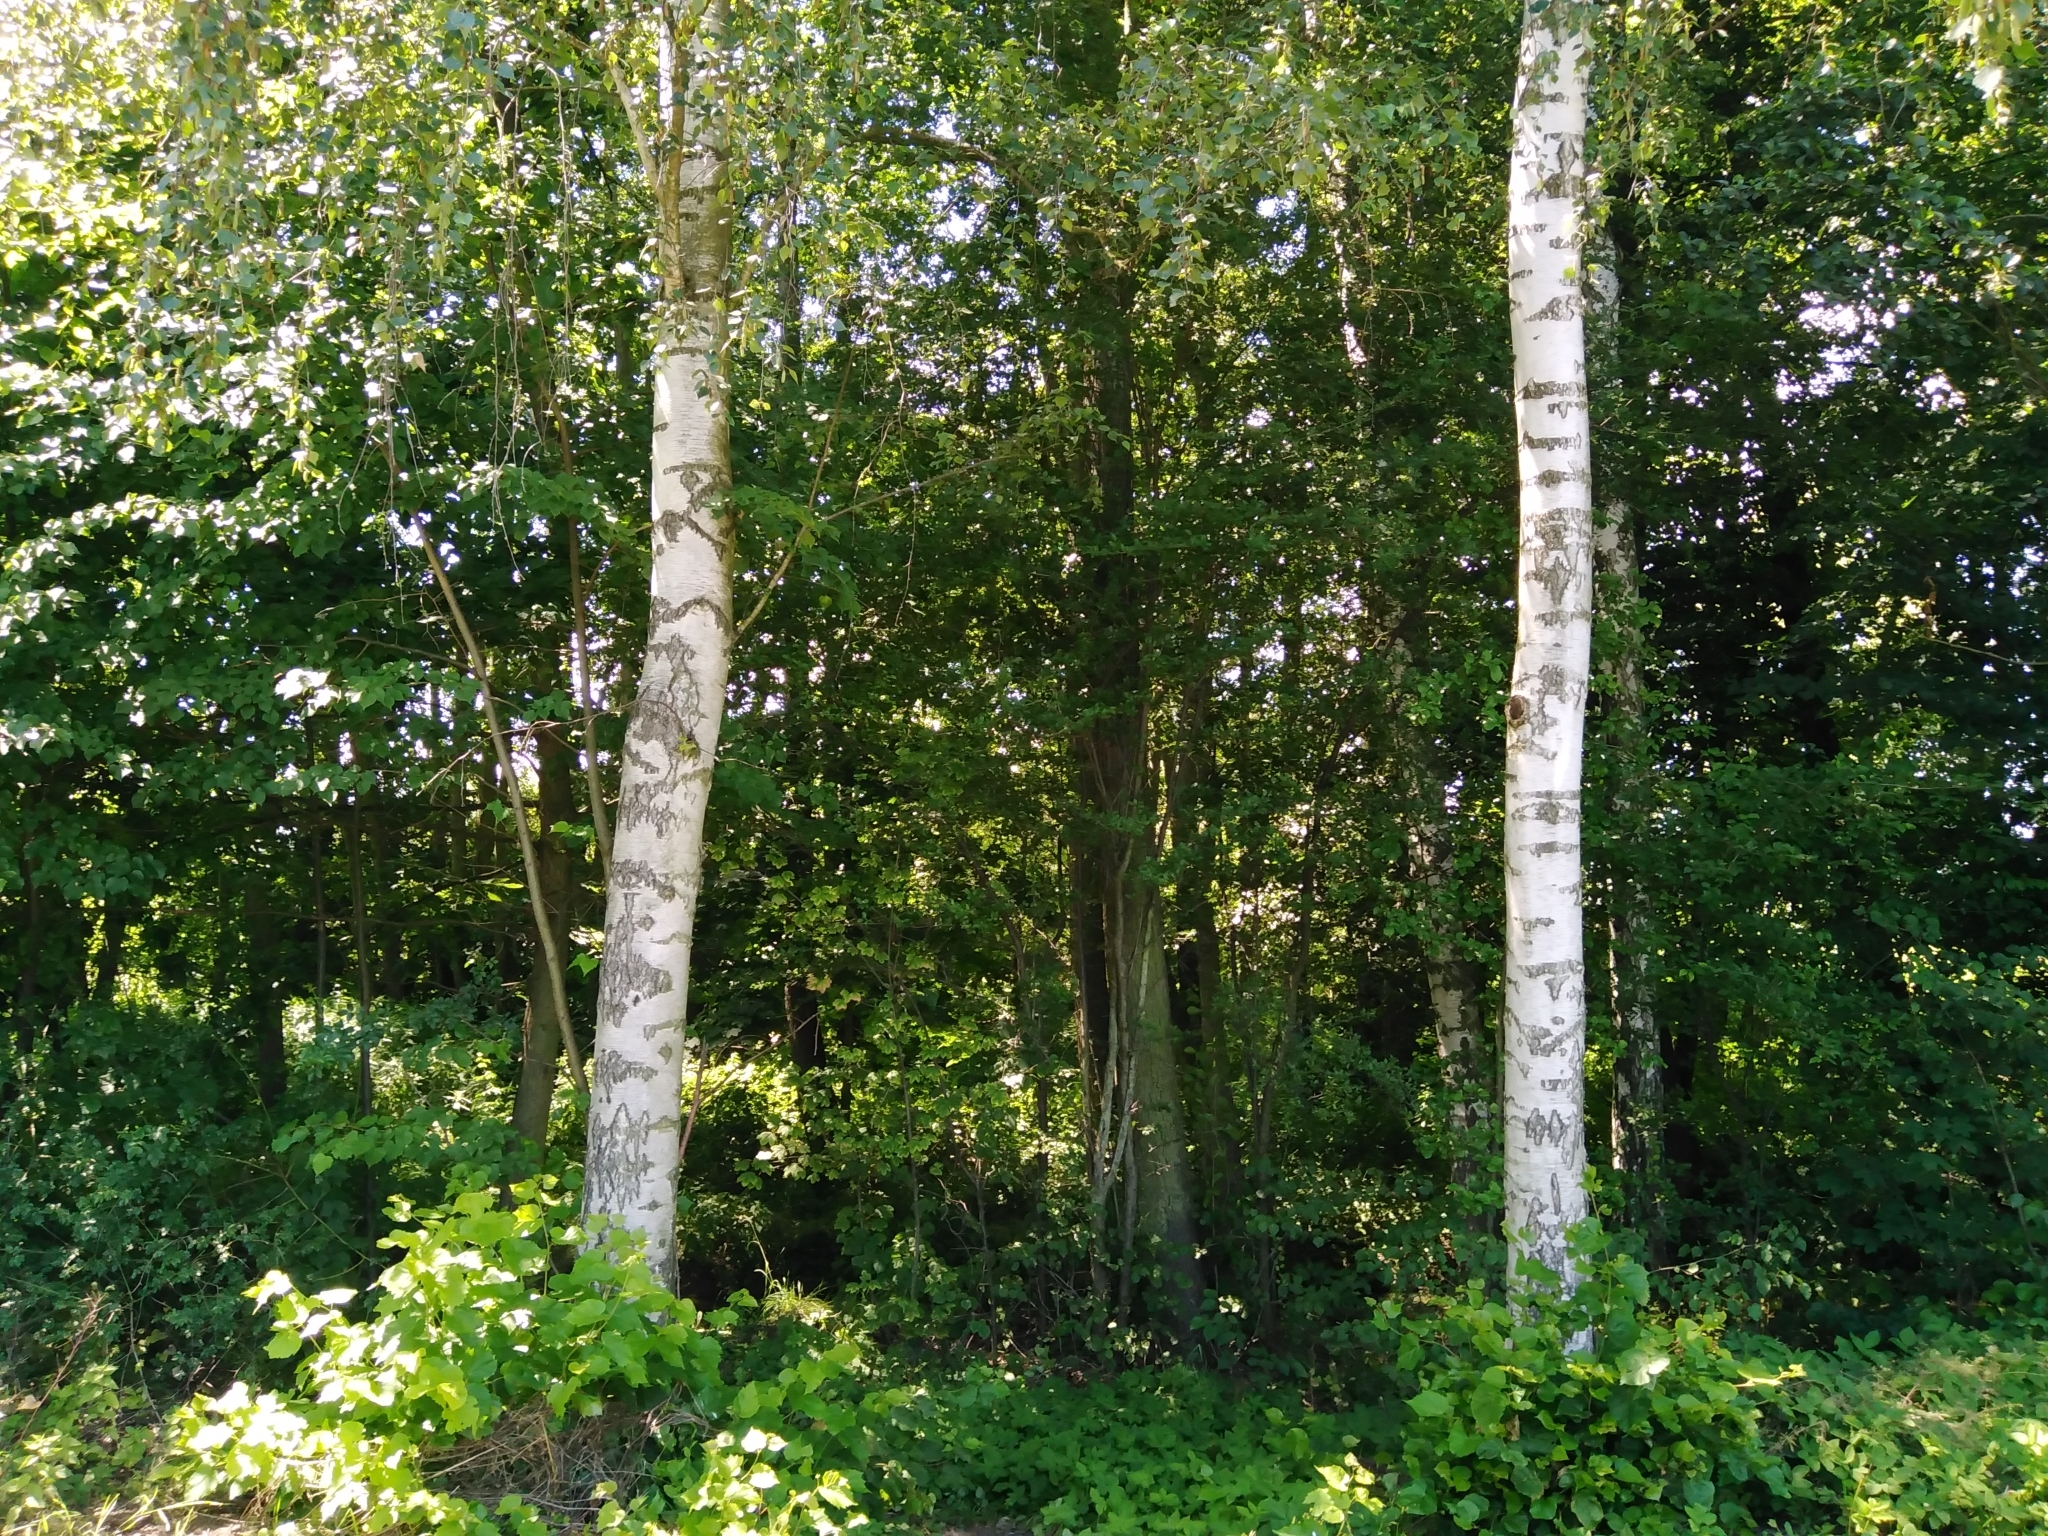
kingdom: Plantae
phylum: Tracheophyta
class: Magnoliopsida
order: Fagales
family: Betulaceae
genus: Betula
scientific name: Betula pendula
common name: Silver birch
